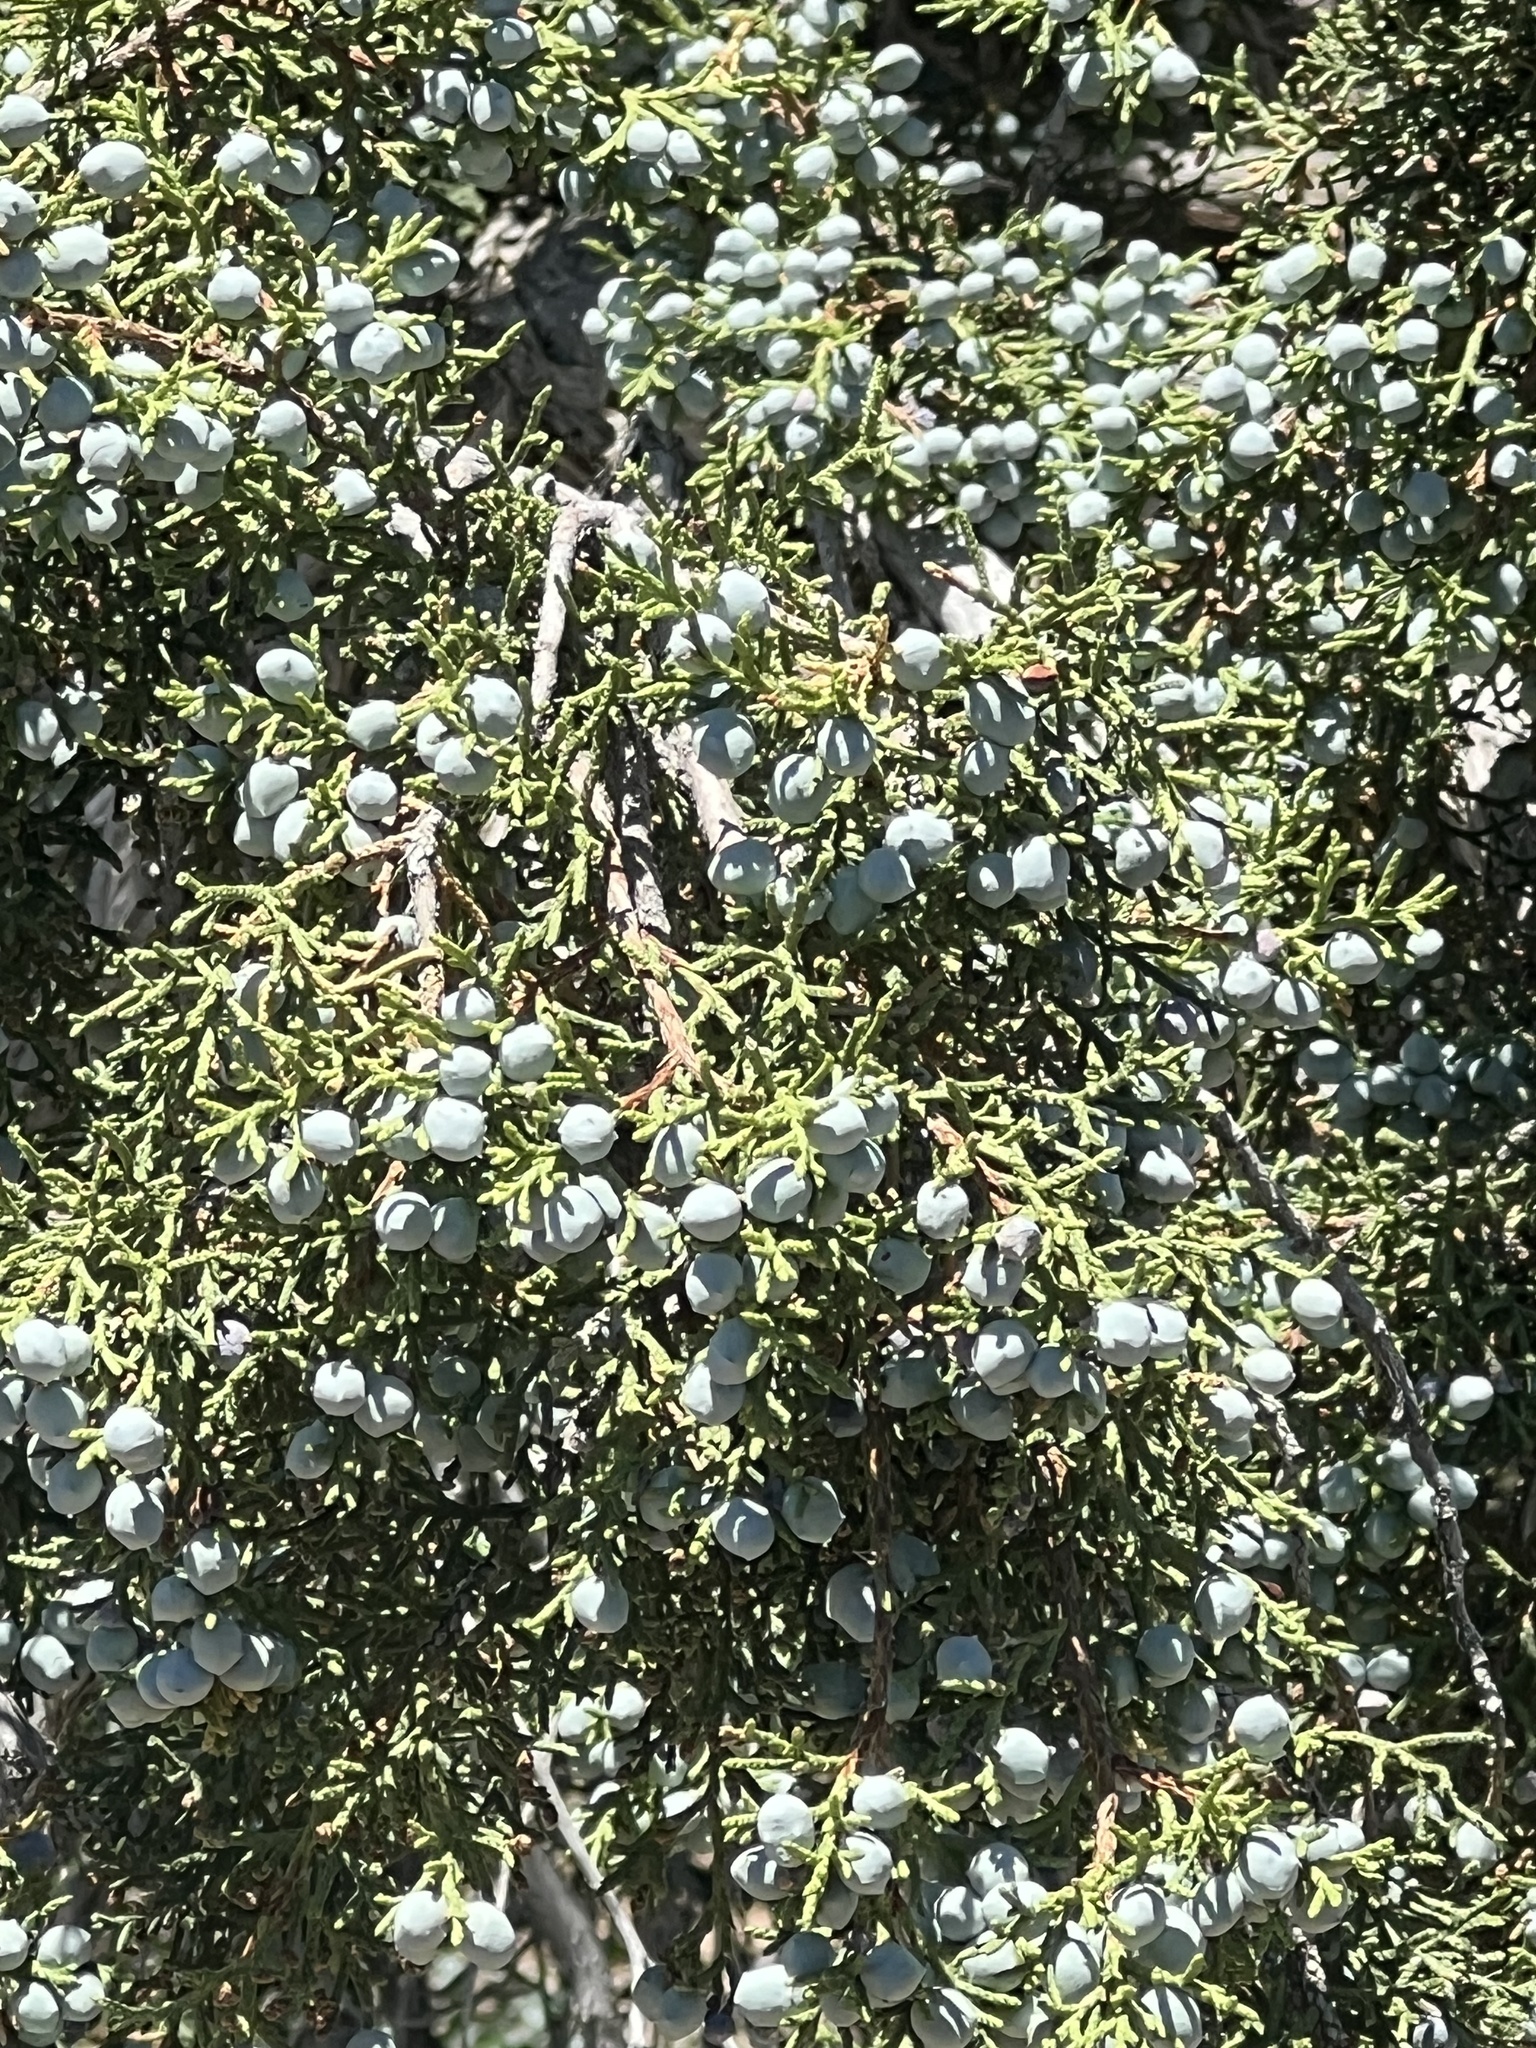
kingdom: Plantae
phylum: Tracheophyta
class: Pinopsida
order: Pinales
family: Cupressaceae
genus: Juniperus
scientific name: Juniperus osteosperma
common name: Utah juniper
